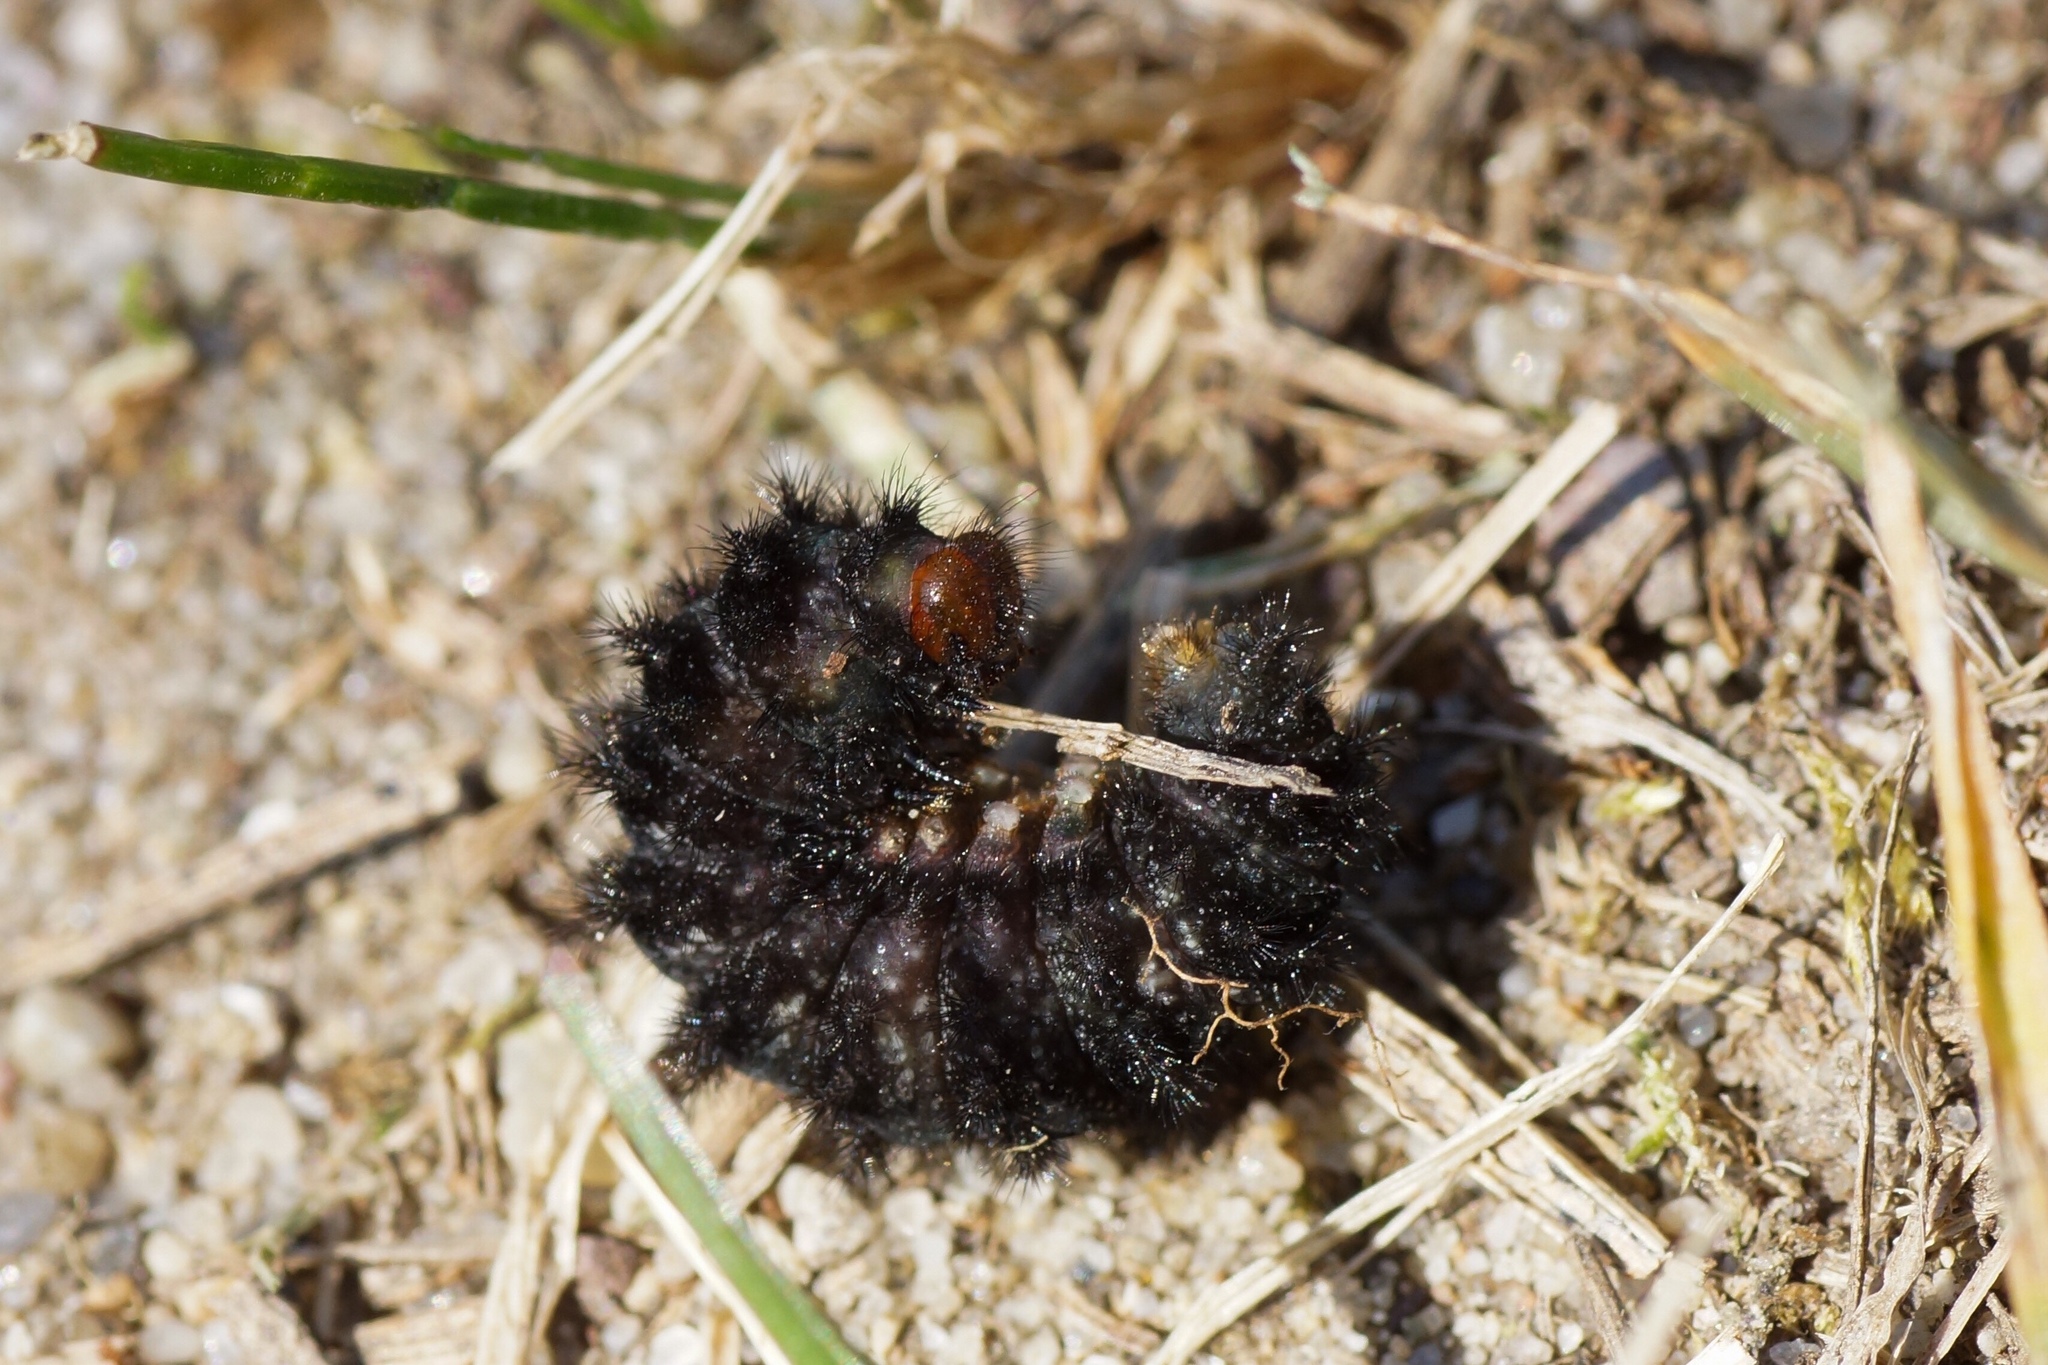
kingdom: Animalia
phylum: Arthropoda
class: Insecta
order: Lepidoptera
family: Nymphalidae
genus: Melitaea
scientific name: Melitaea cinxia
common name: Glanville fritillary
